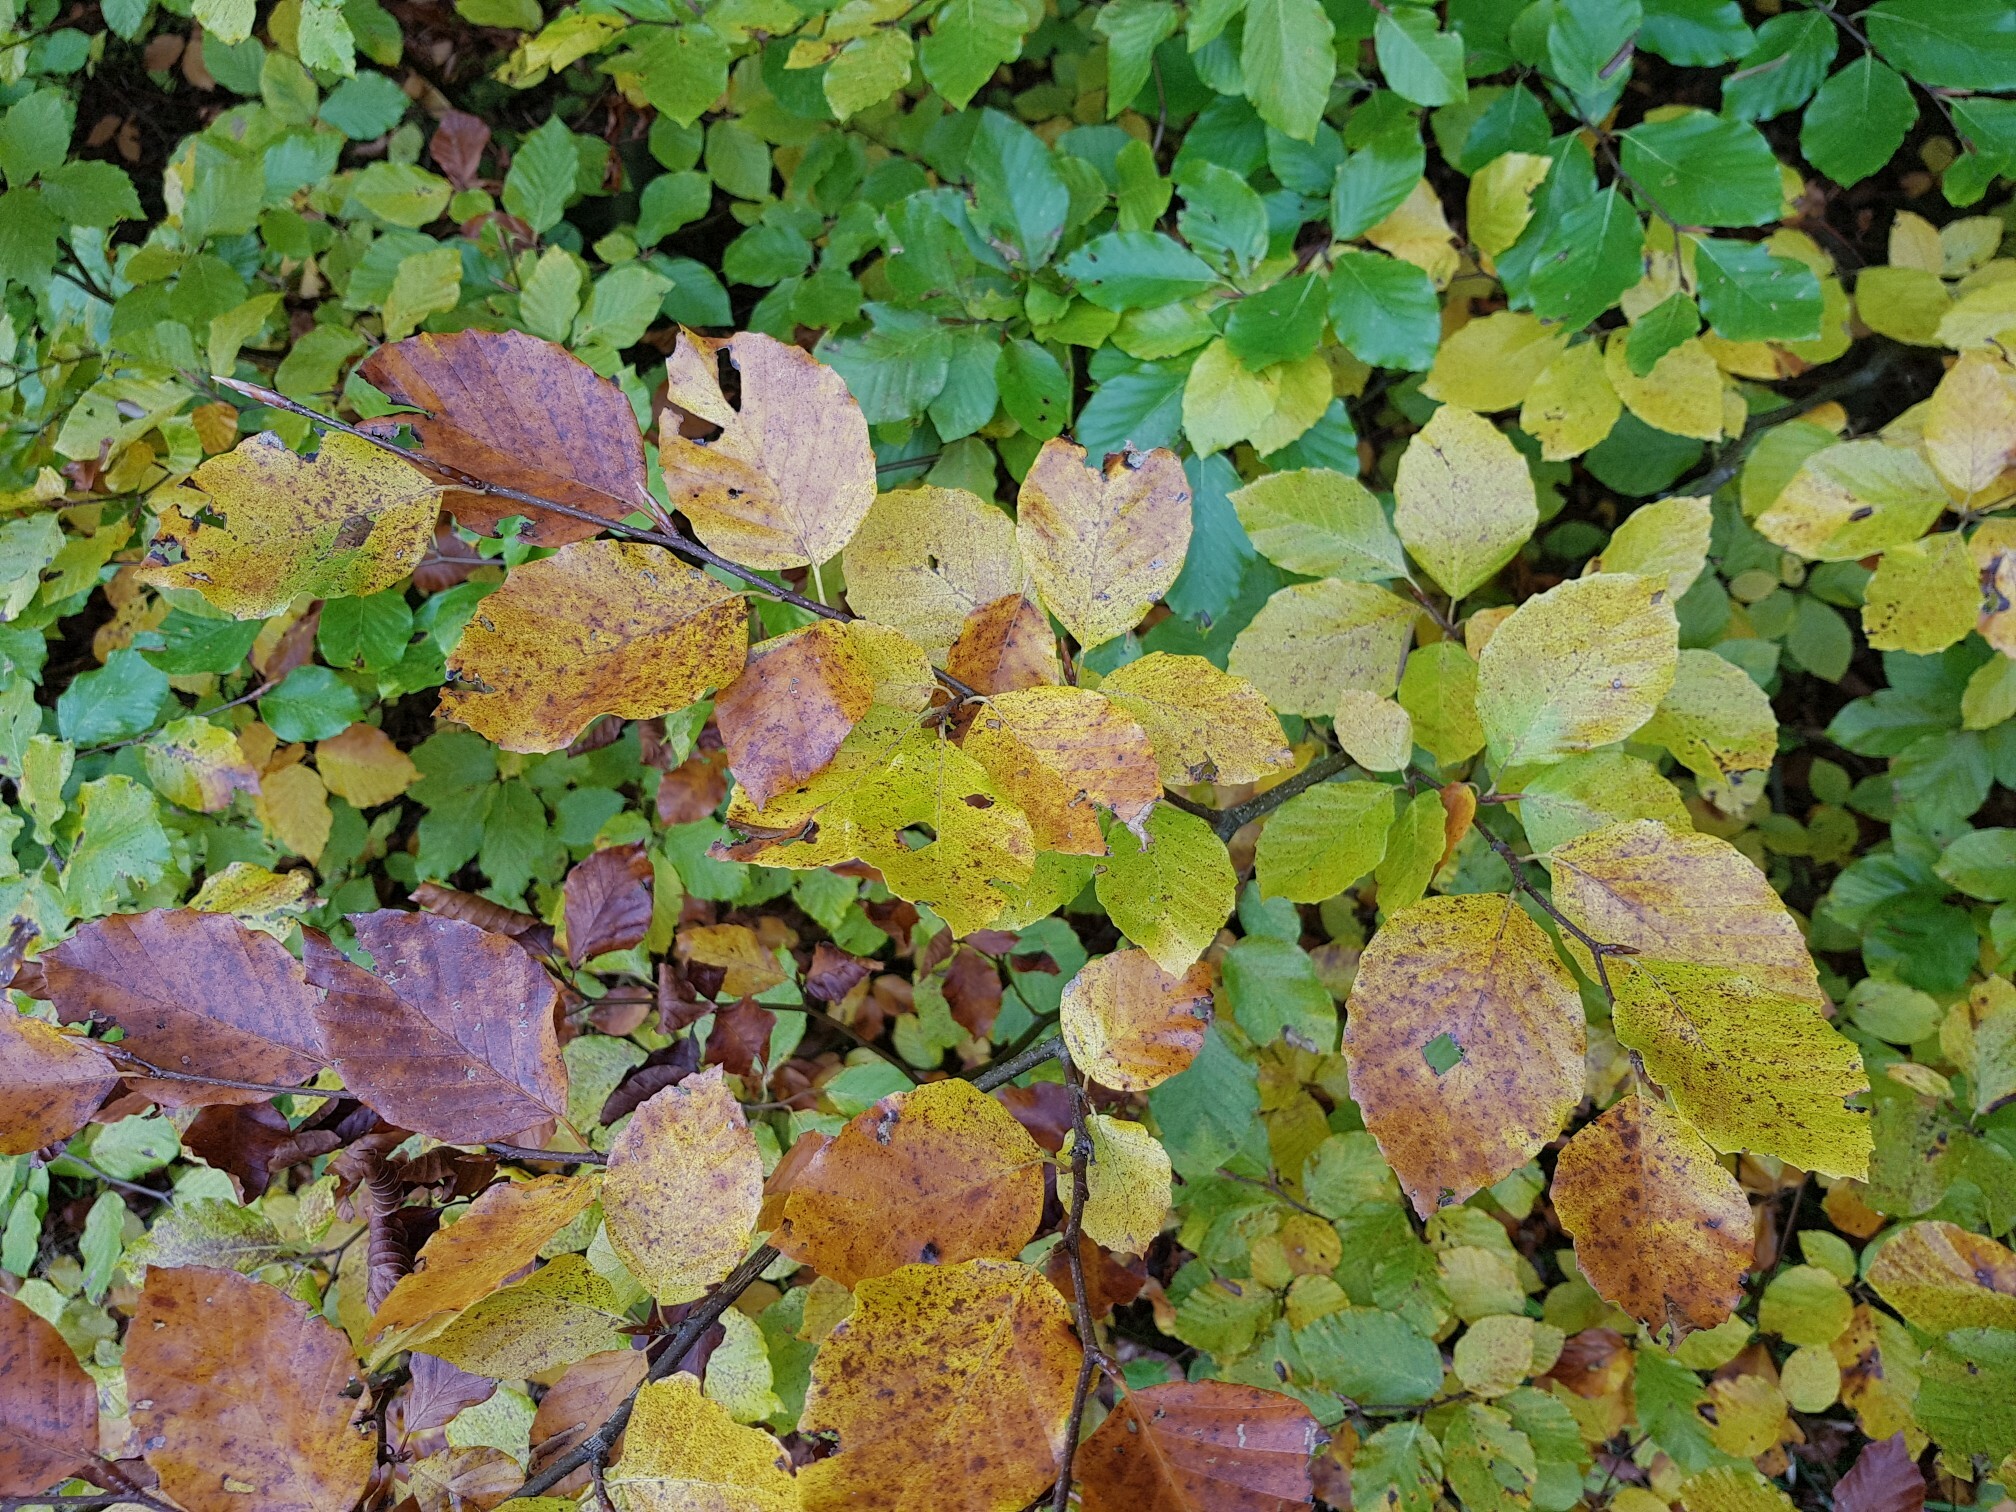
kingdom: Plantae
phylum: Tracheophyta
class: Magnoliopsida
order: Fagales
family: Fagaceae
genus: Fagus
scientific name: Fagus sylvatica
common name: Beech
